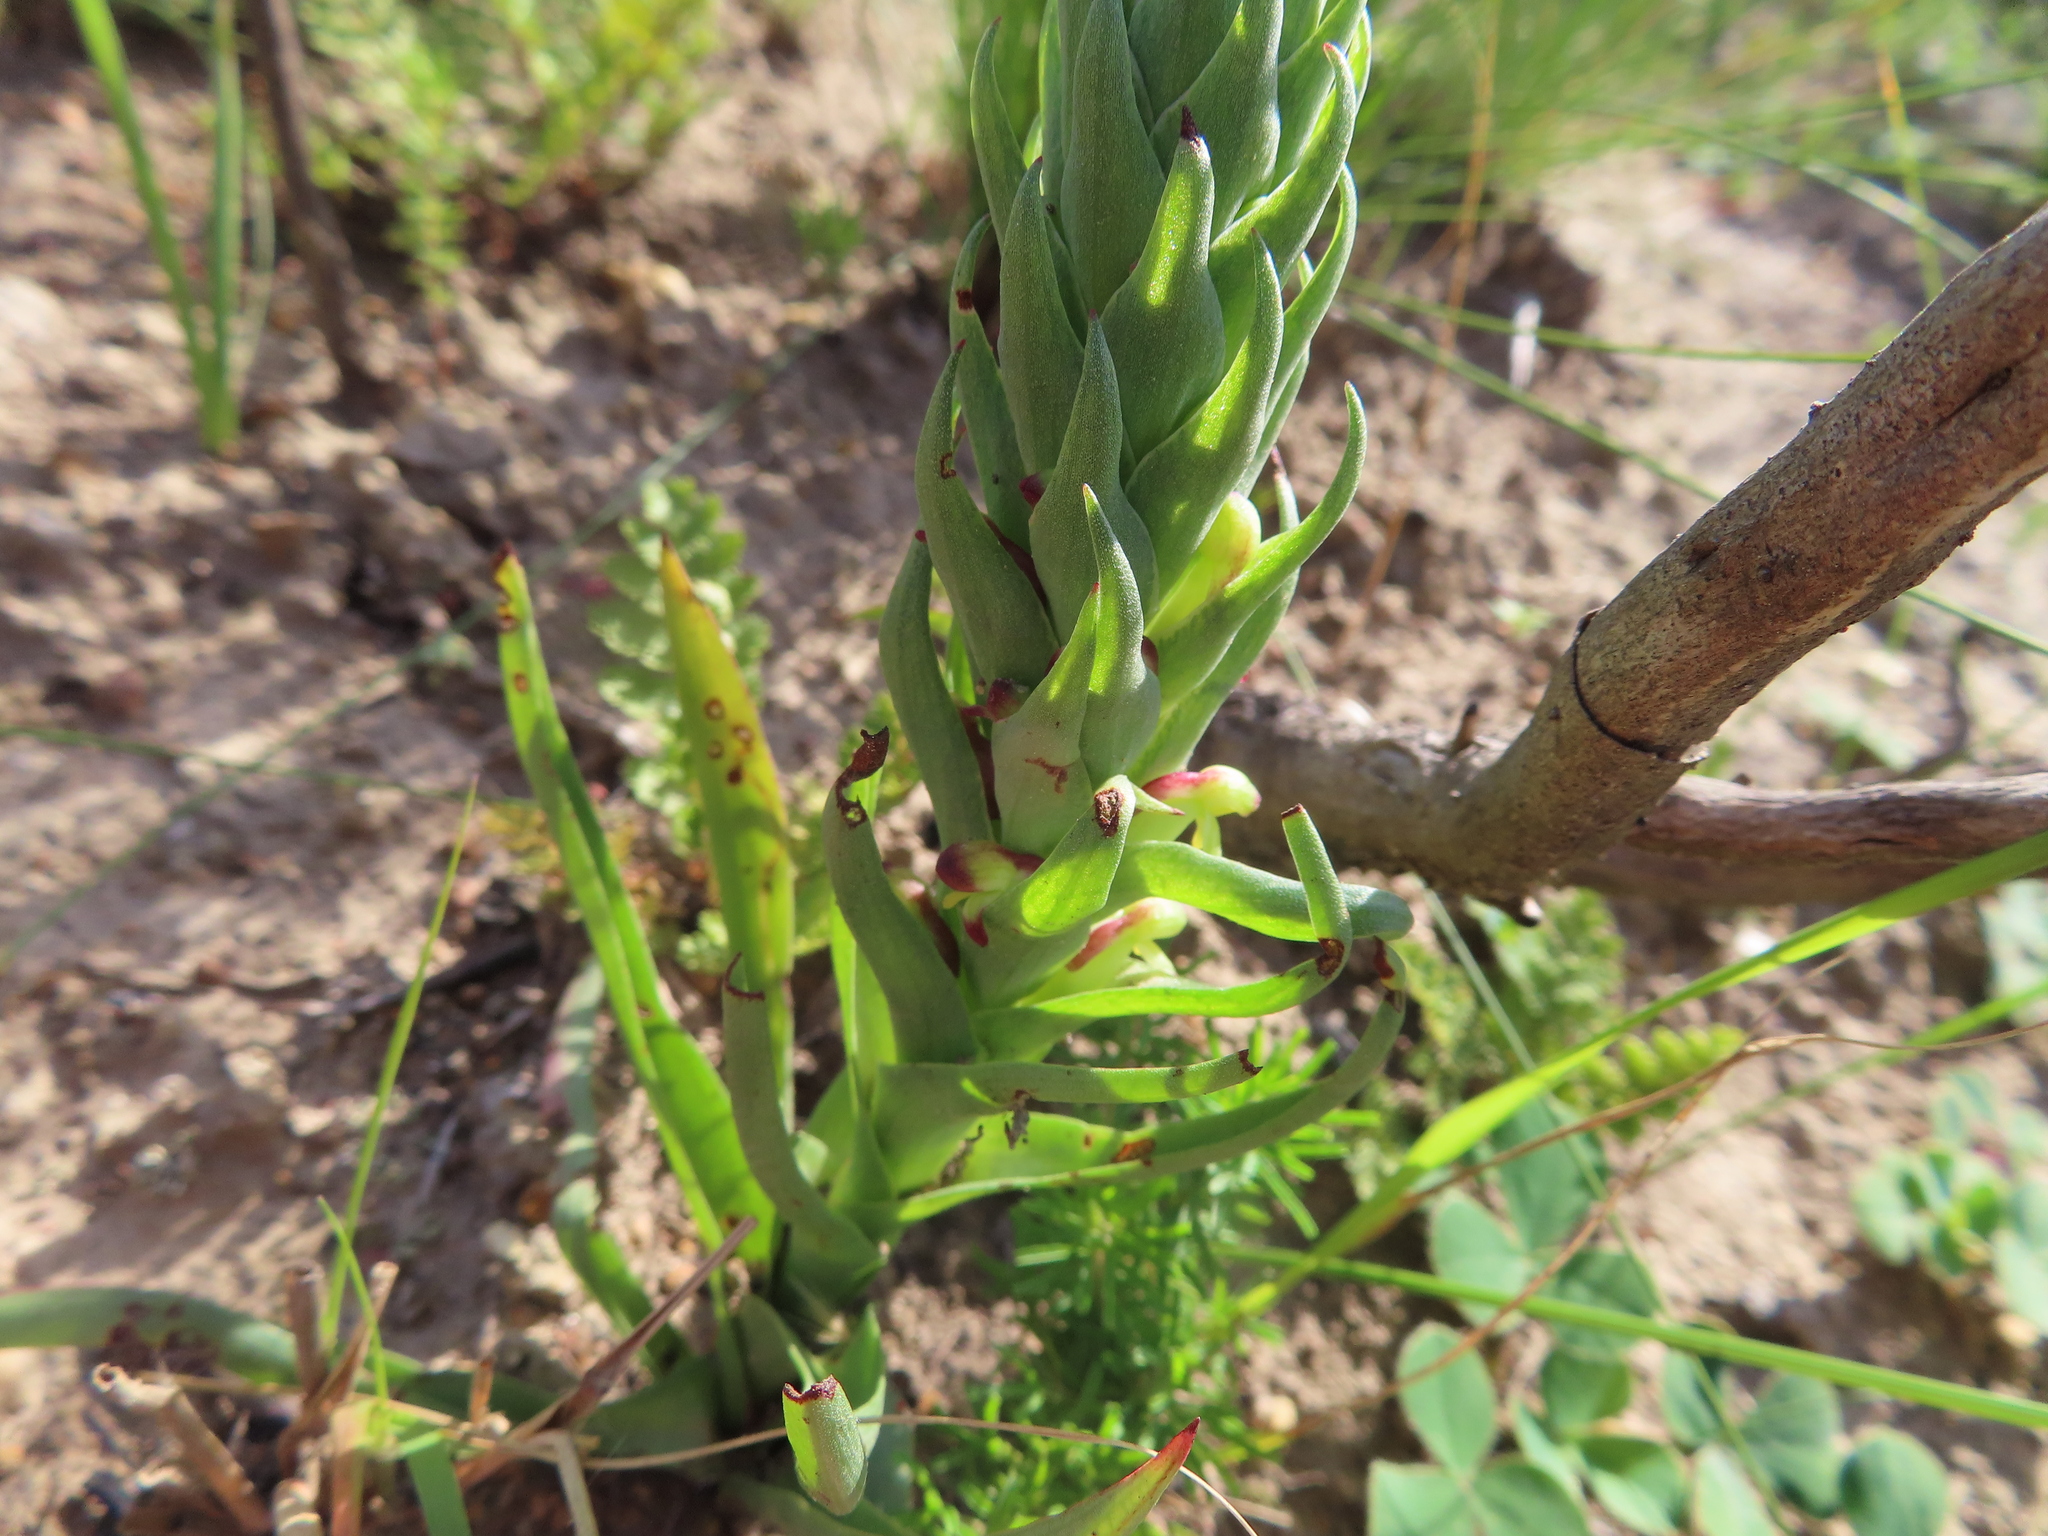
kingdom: Plantae
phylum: Tracheophyta
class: Liliopsida
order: Asparagales
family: Orchidaceae
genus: Disa
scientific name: Disa bracteata
